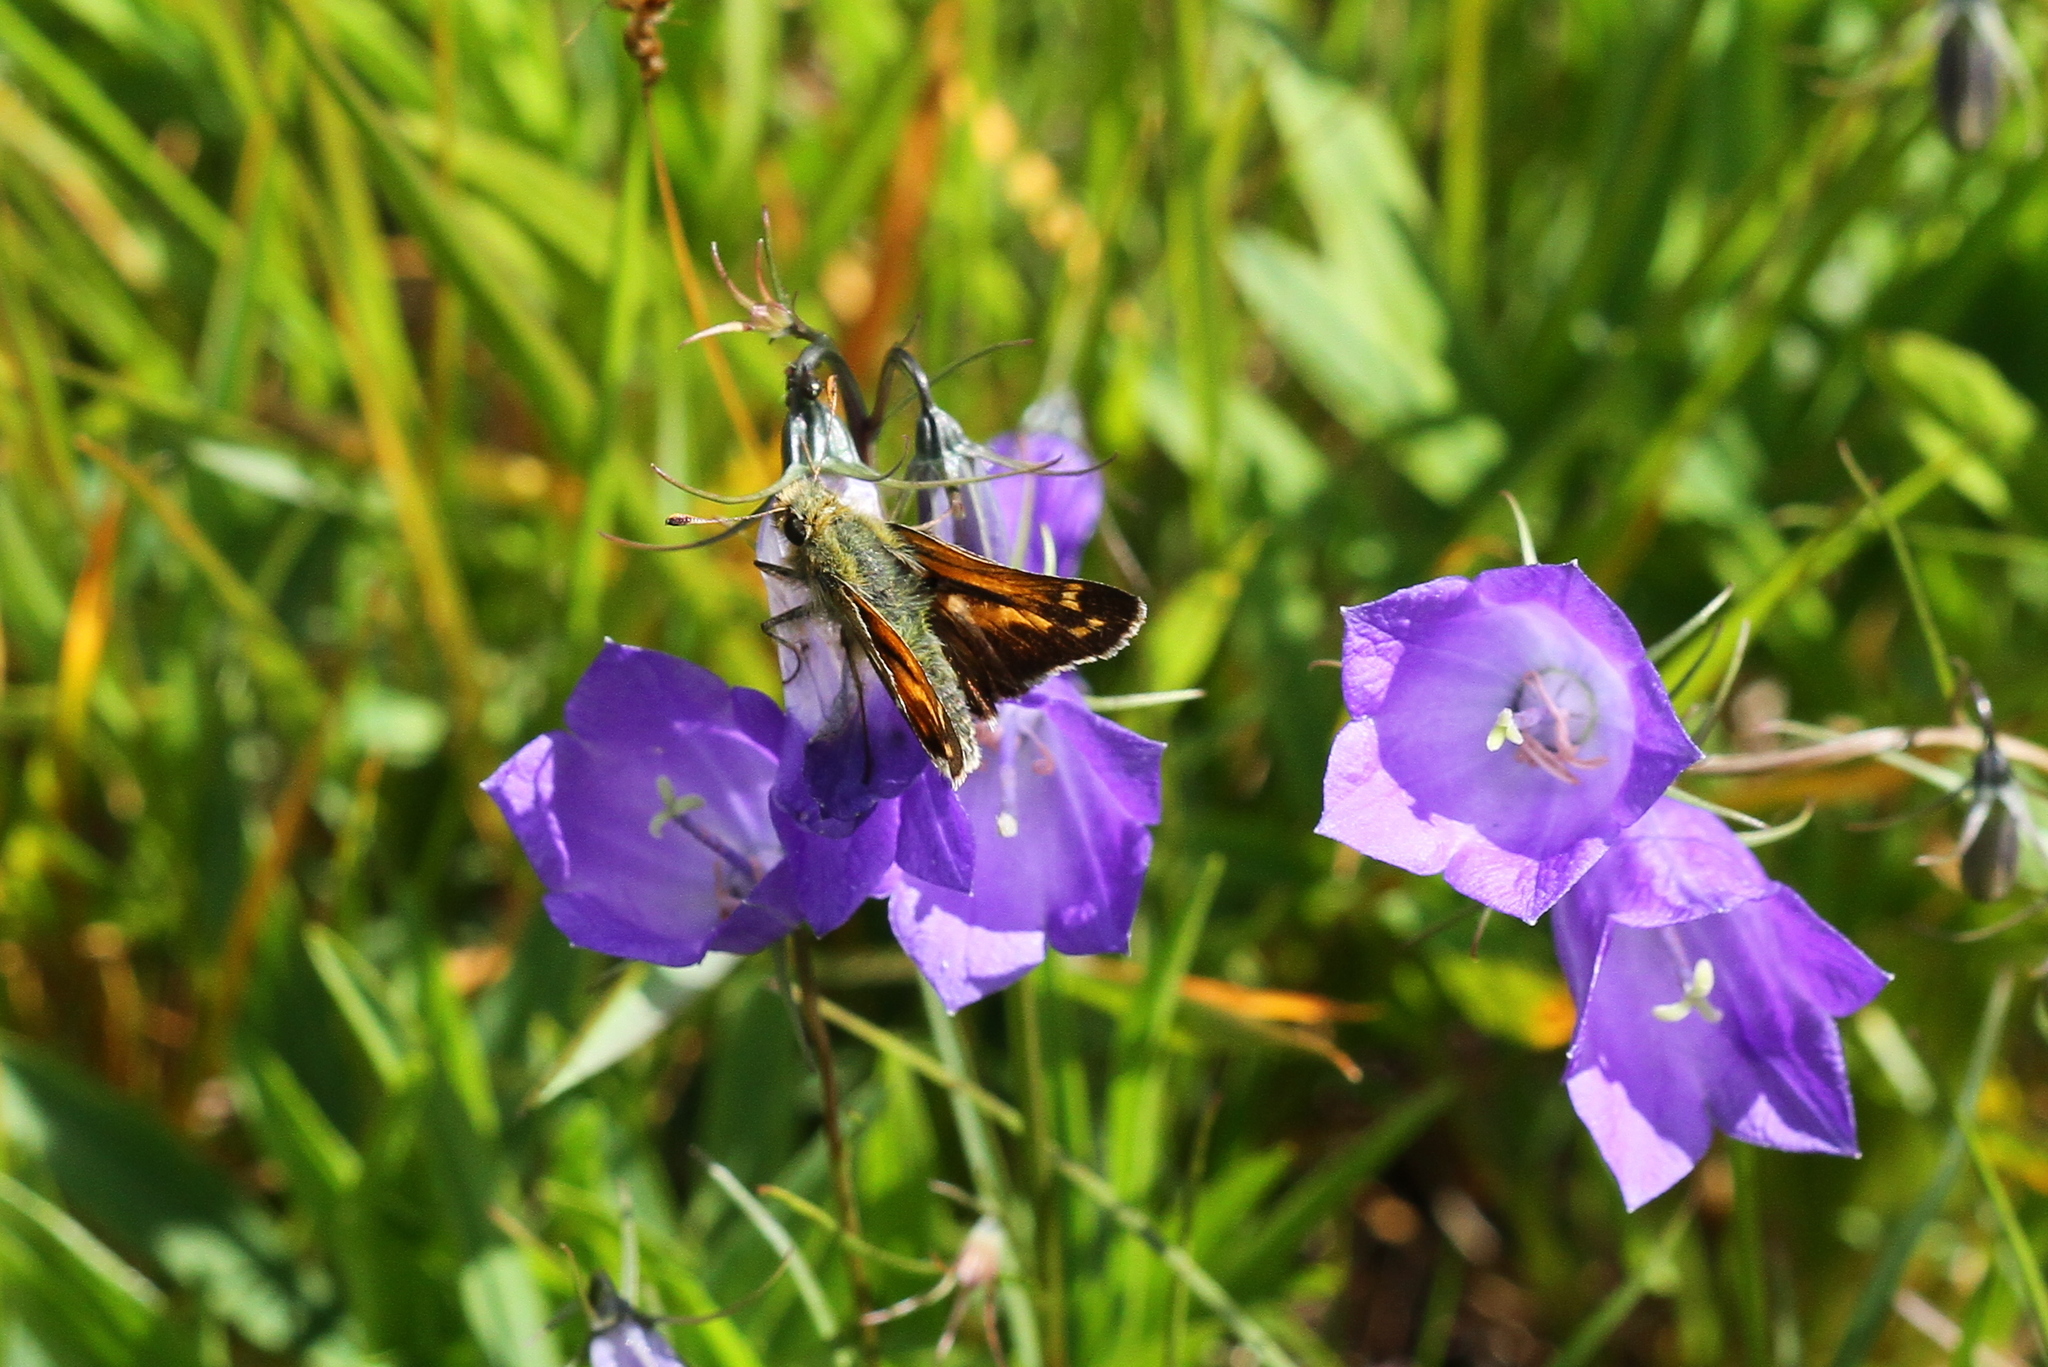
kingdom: Animalia
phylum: Arthropoda
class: Insecta
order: Lepidoptera
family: Hesperiidae
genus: Hesperia
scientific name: Hesperia comma
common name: Common branded skipper
